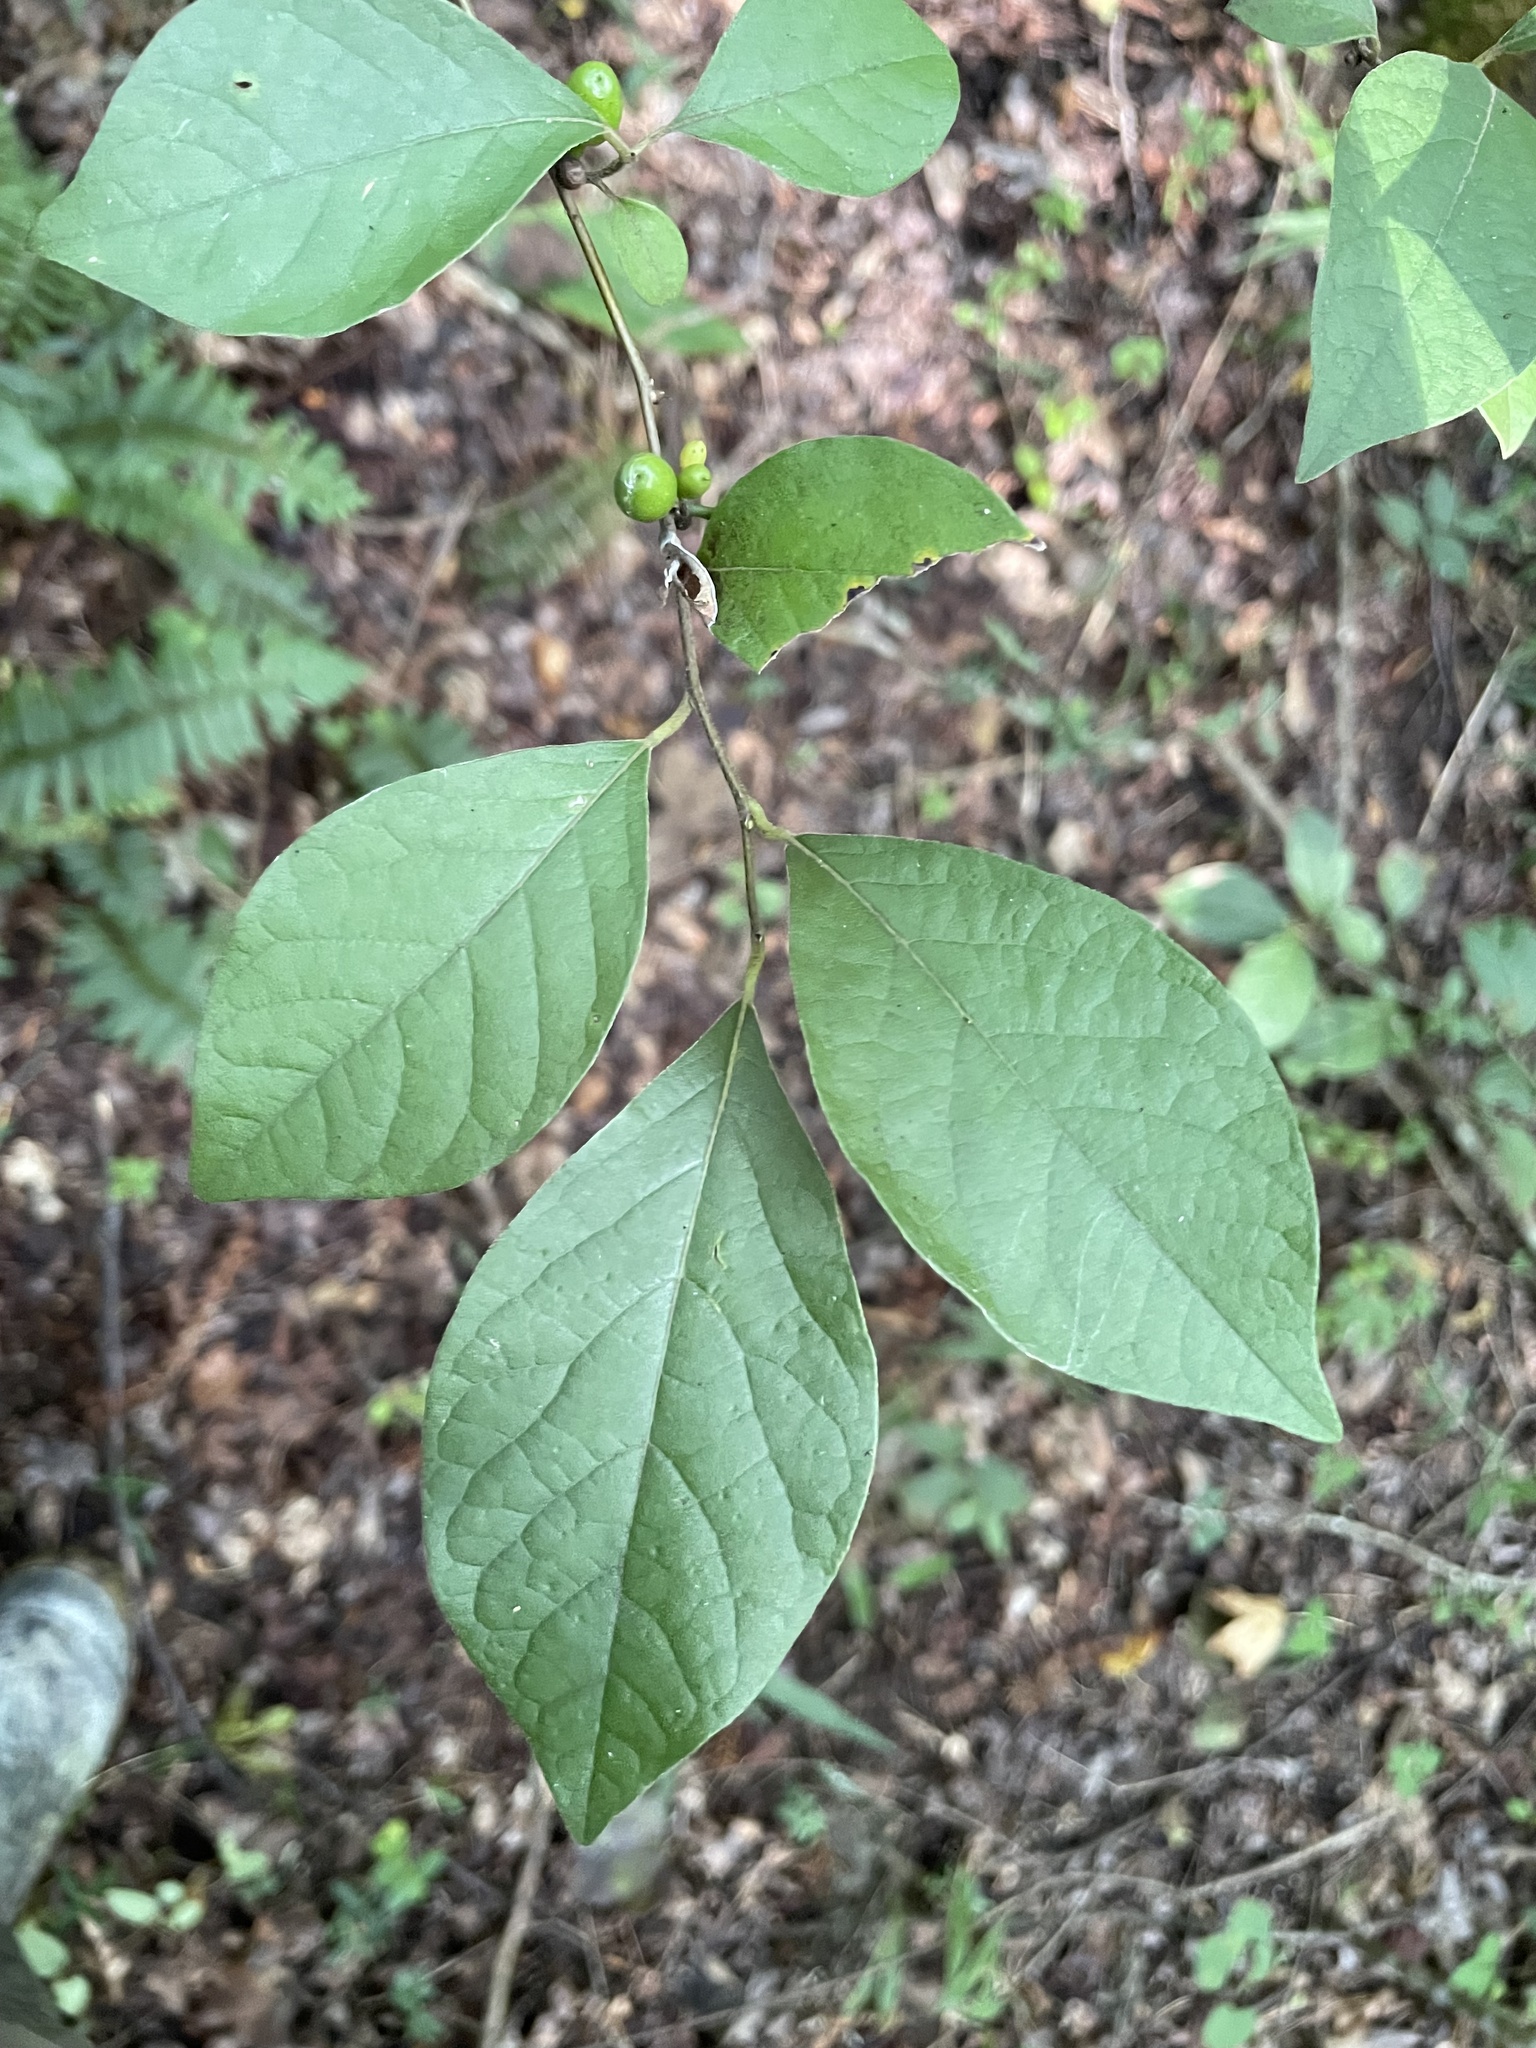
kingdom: Plantae
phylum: Tracheophyta
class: Magnoliopsida
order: Laurales
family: Lauraceae
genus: Lindera
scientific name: Lindera benzoin
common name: Spicebush
